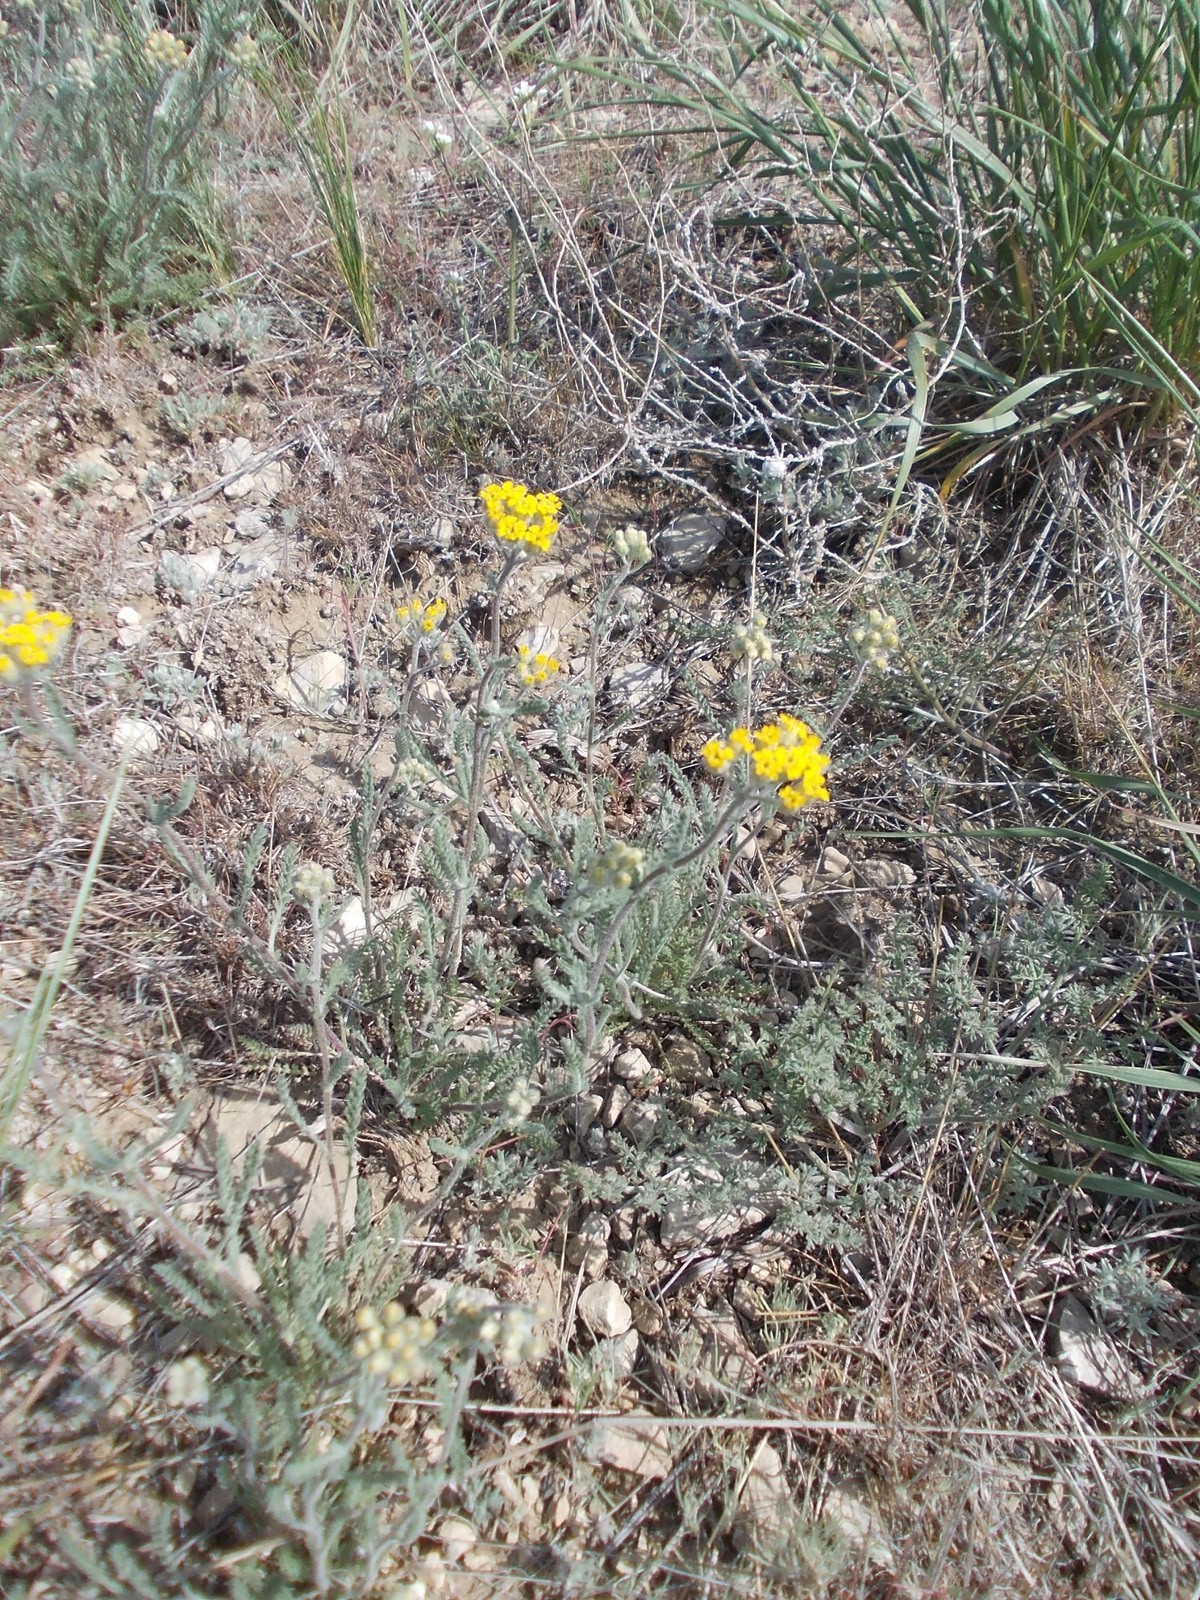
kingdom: Plantae
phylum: Tracheophyta
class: Magnoliopsida
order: Asterales
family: Asteraceae
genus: Achillea
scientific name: Achillea leptophylla
